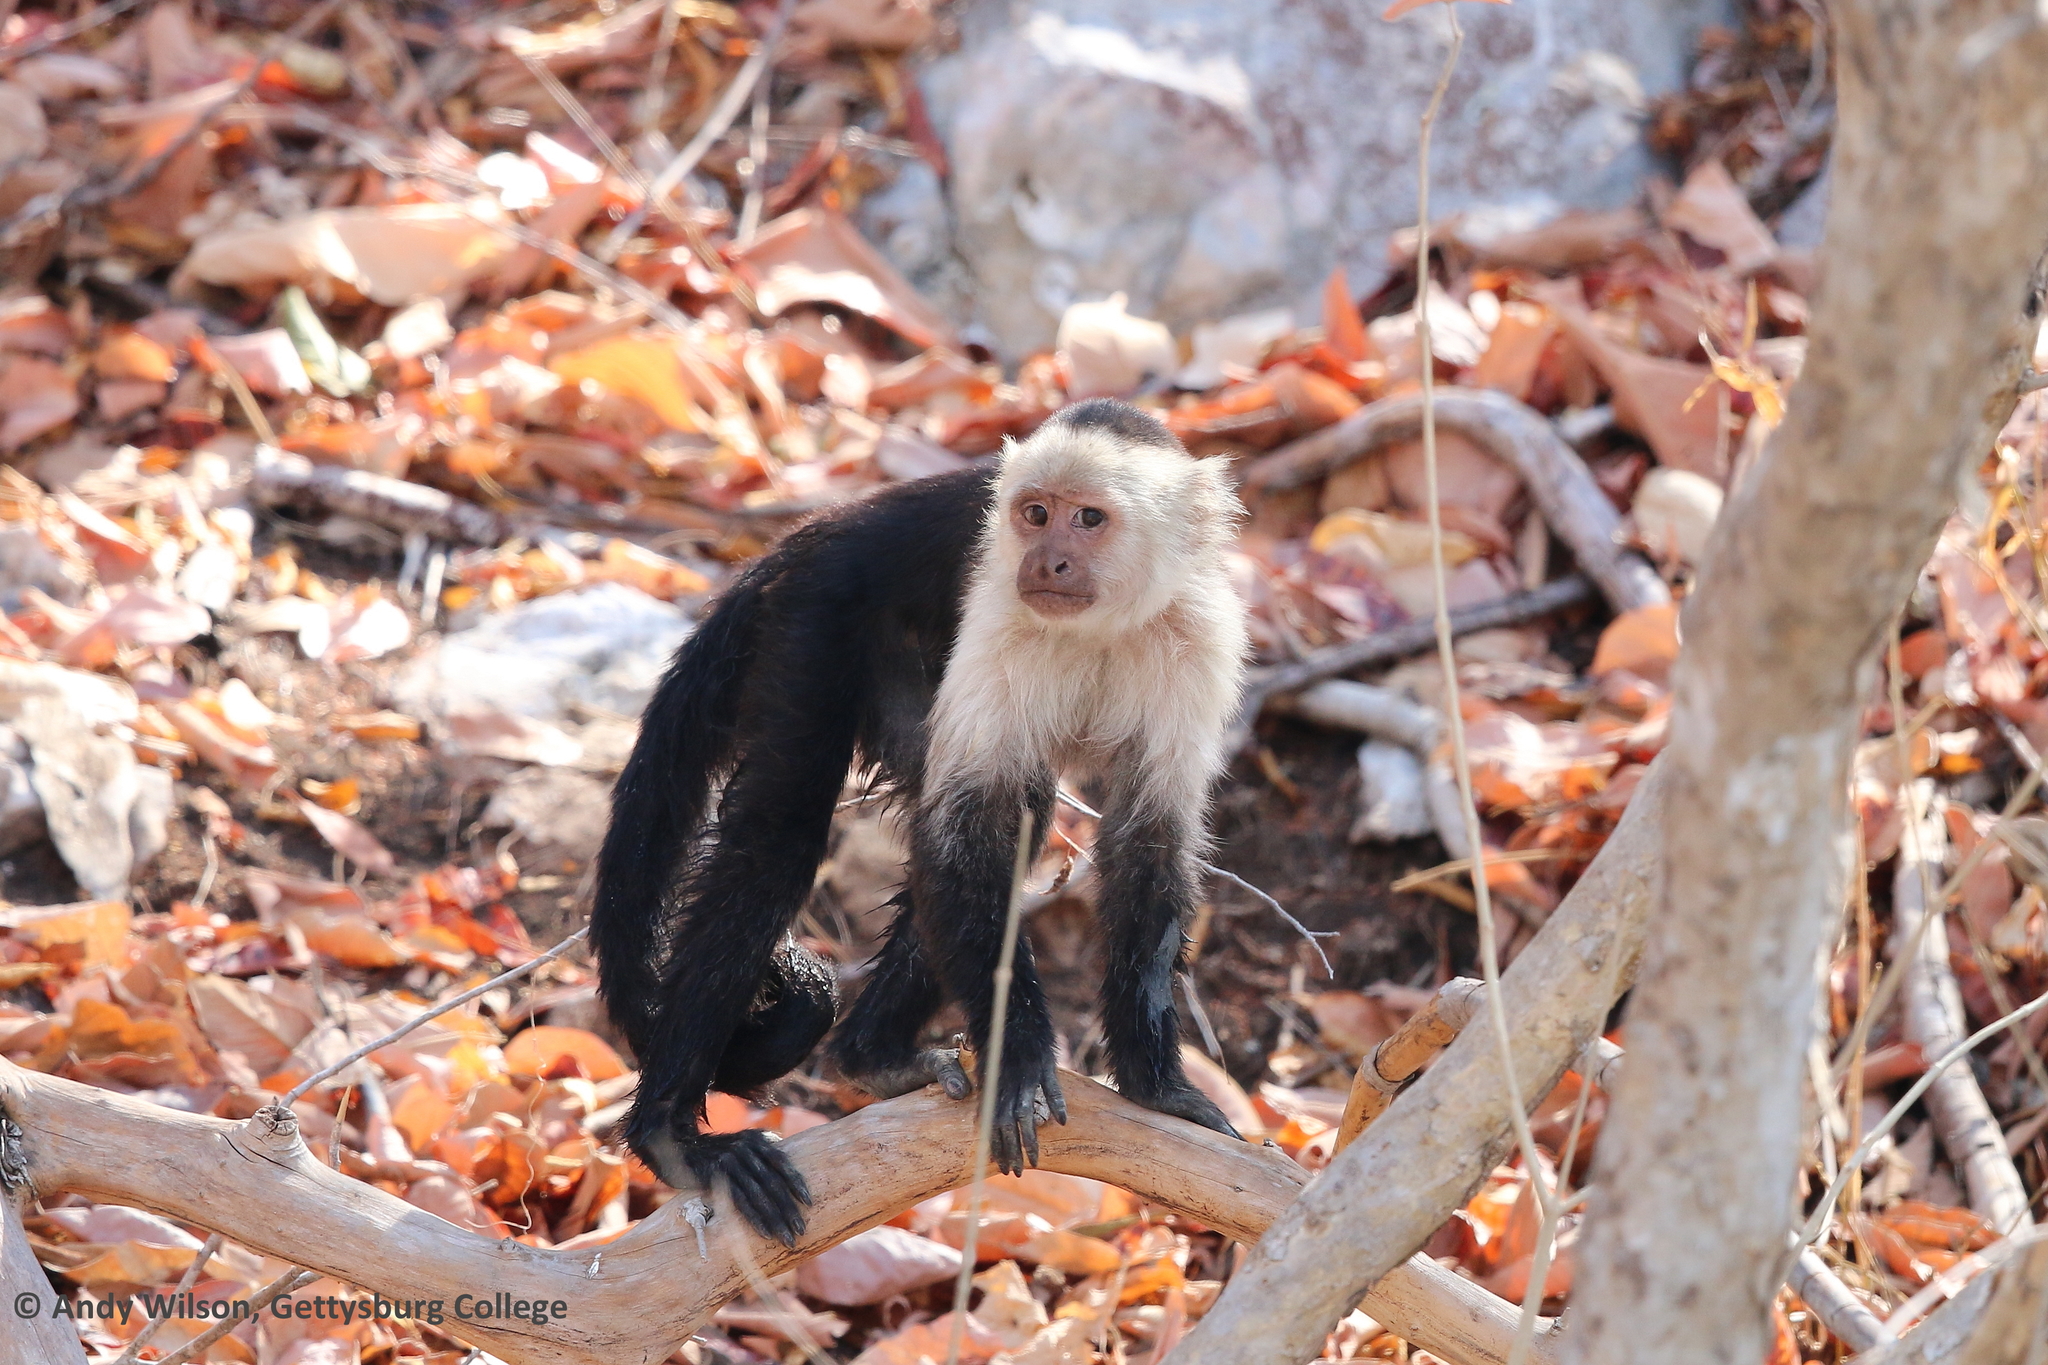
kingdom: Animalia
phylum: Chordata
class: Mammalia
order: Primates
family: Cebidae
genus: Cebus
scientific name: Cebus imitator
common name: Panamanian white-faced capuchin
